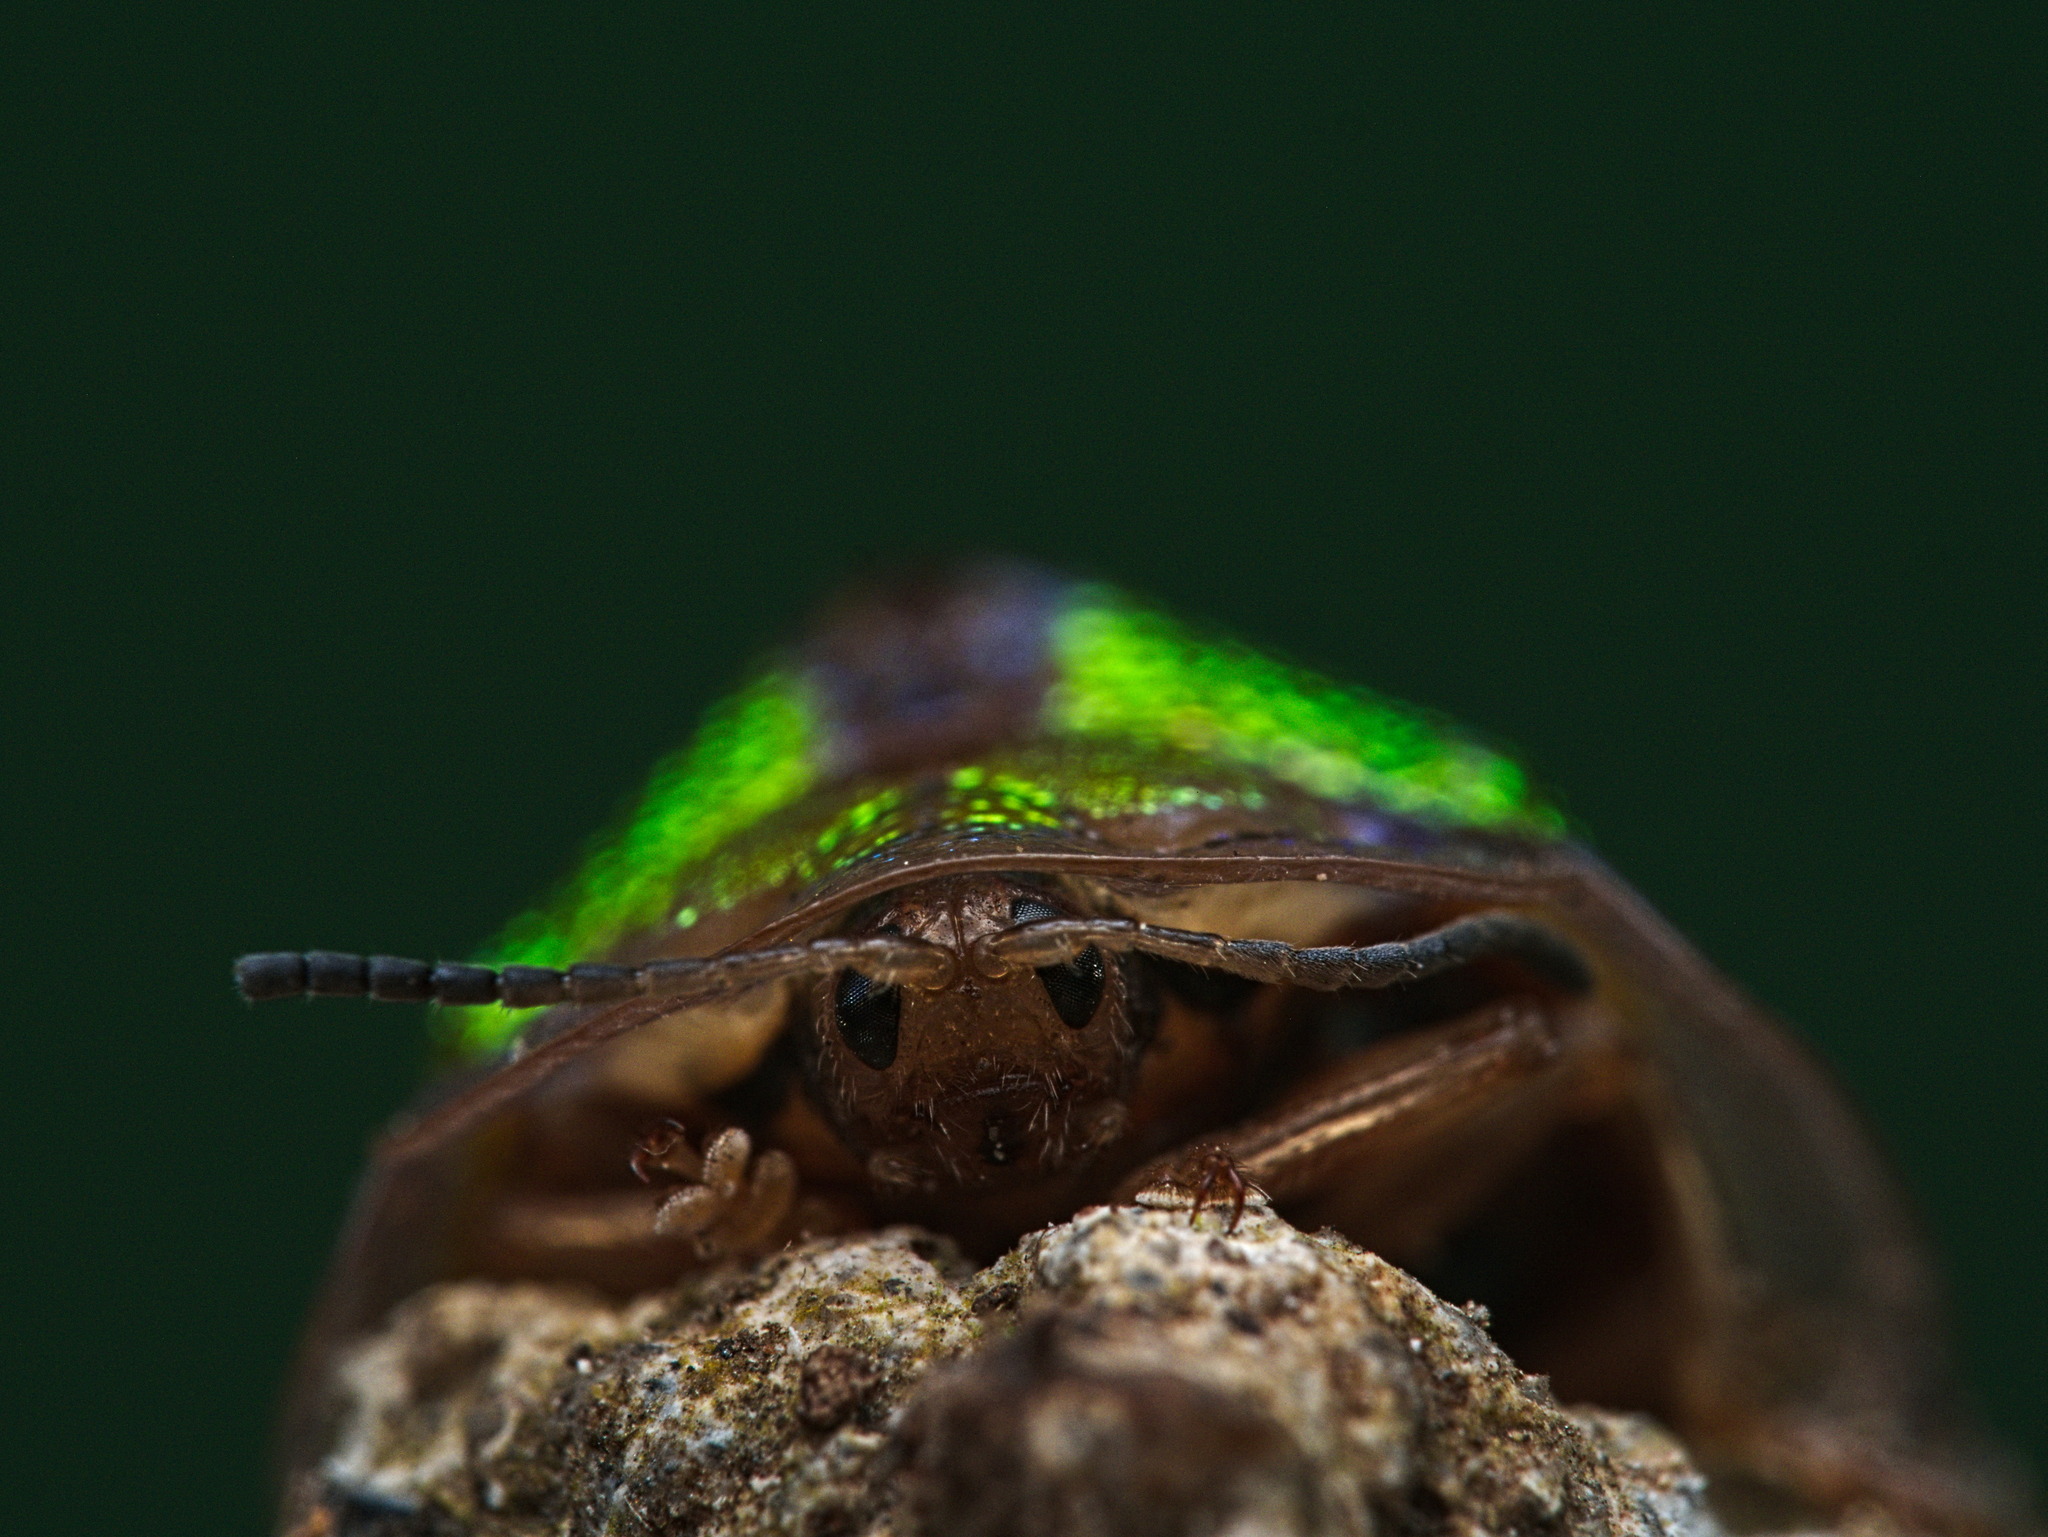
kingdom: Animalia
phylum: Arthropoda
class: Insecta
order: Coleoptera
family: Chrysomelidae
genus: Physonota
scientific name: Physonota nitidicollis
